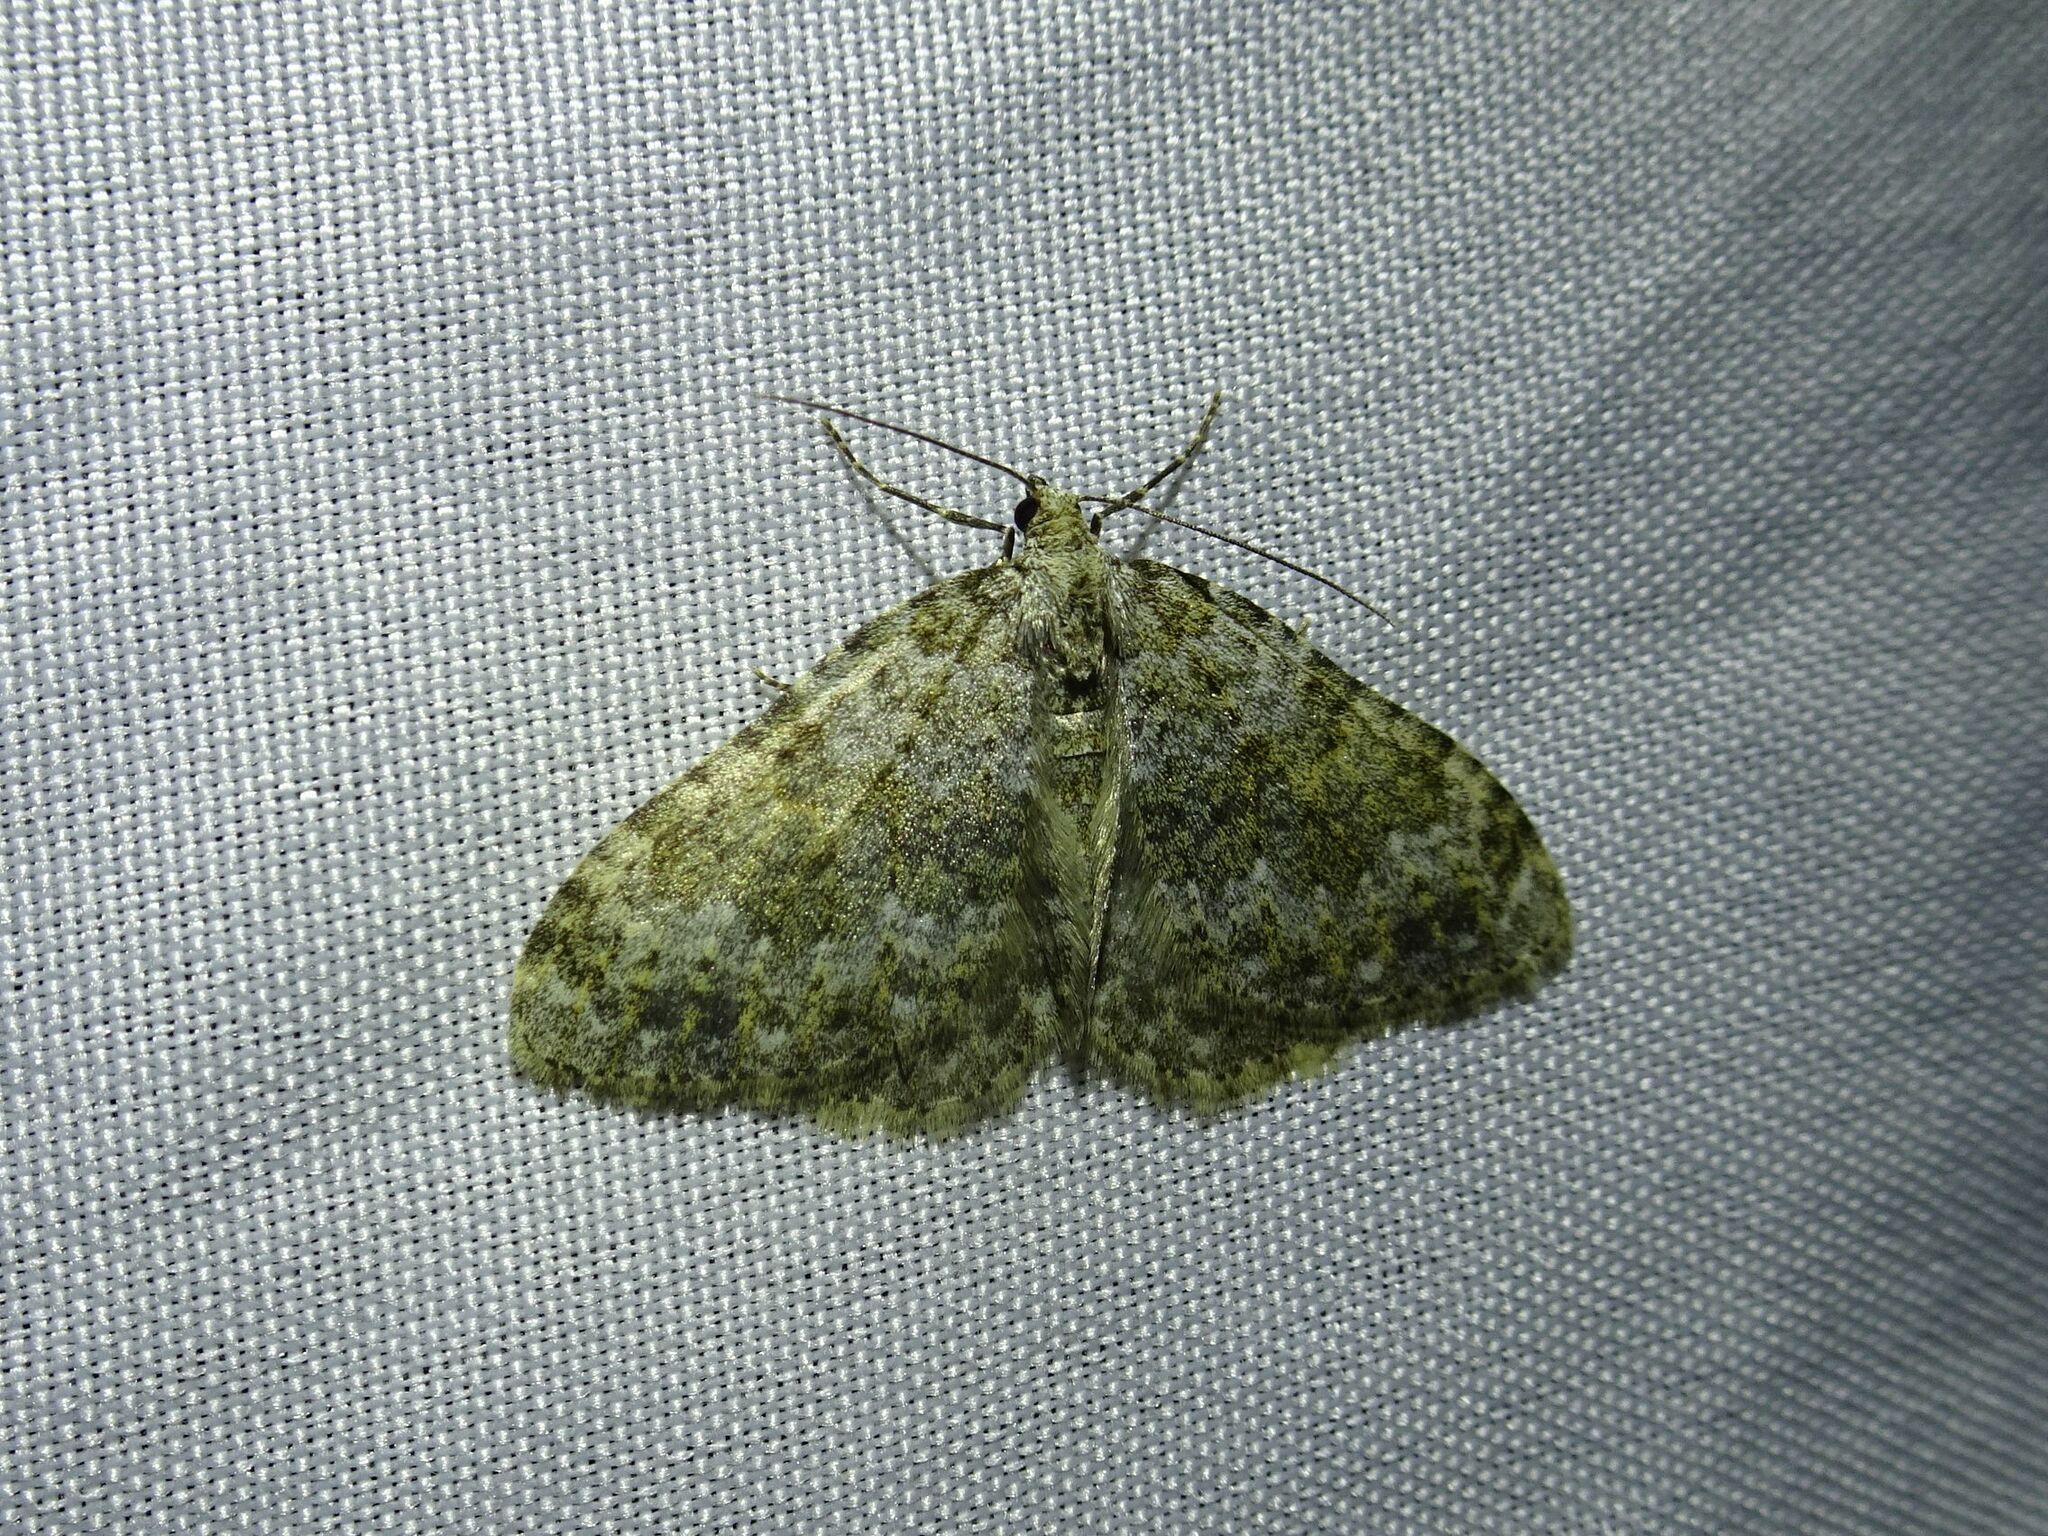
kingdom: Animalia
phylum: Arthropoda
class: Insecta
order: Lepidoptera
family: Geometridae
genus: Nebula
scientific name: Nebula salicata
